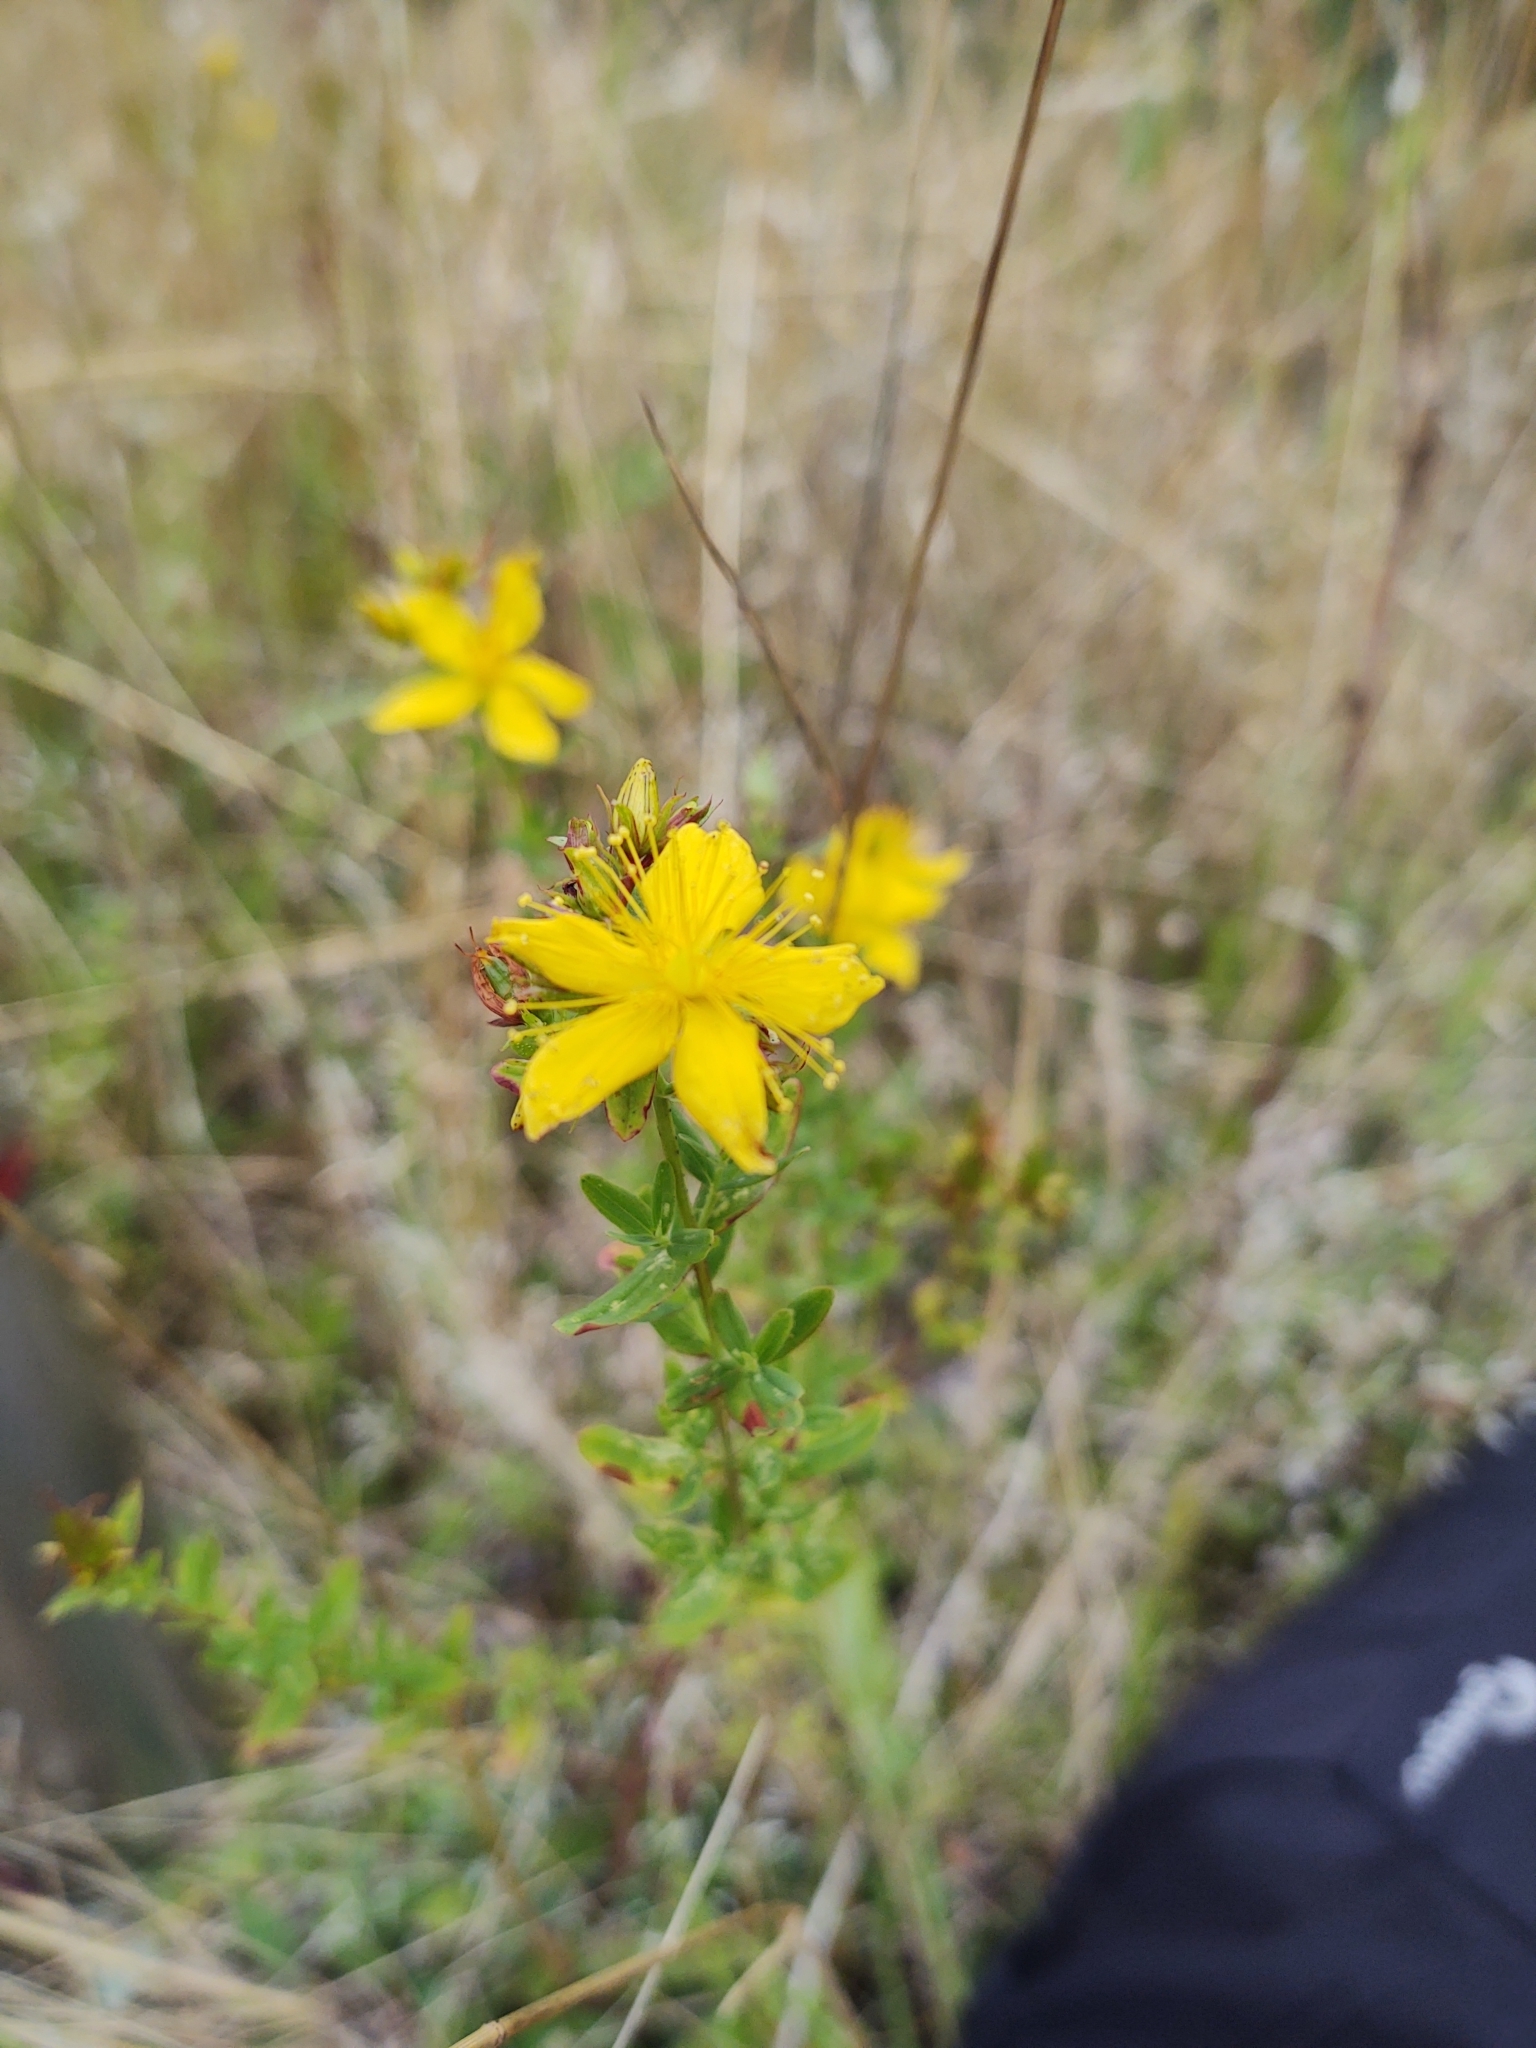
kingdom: Plantae
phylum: Tracheophyta
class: Magnoliopsida
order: Malpighiales
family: Hypericaceae
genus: Hypericum
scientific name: Hypericum perforatum
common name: Common st. johnswort
